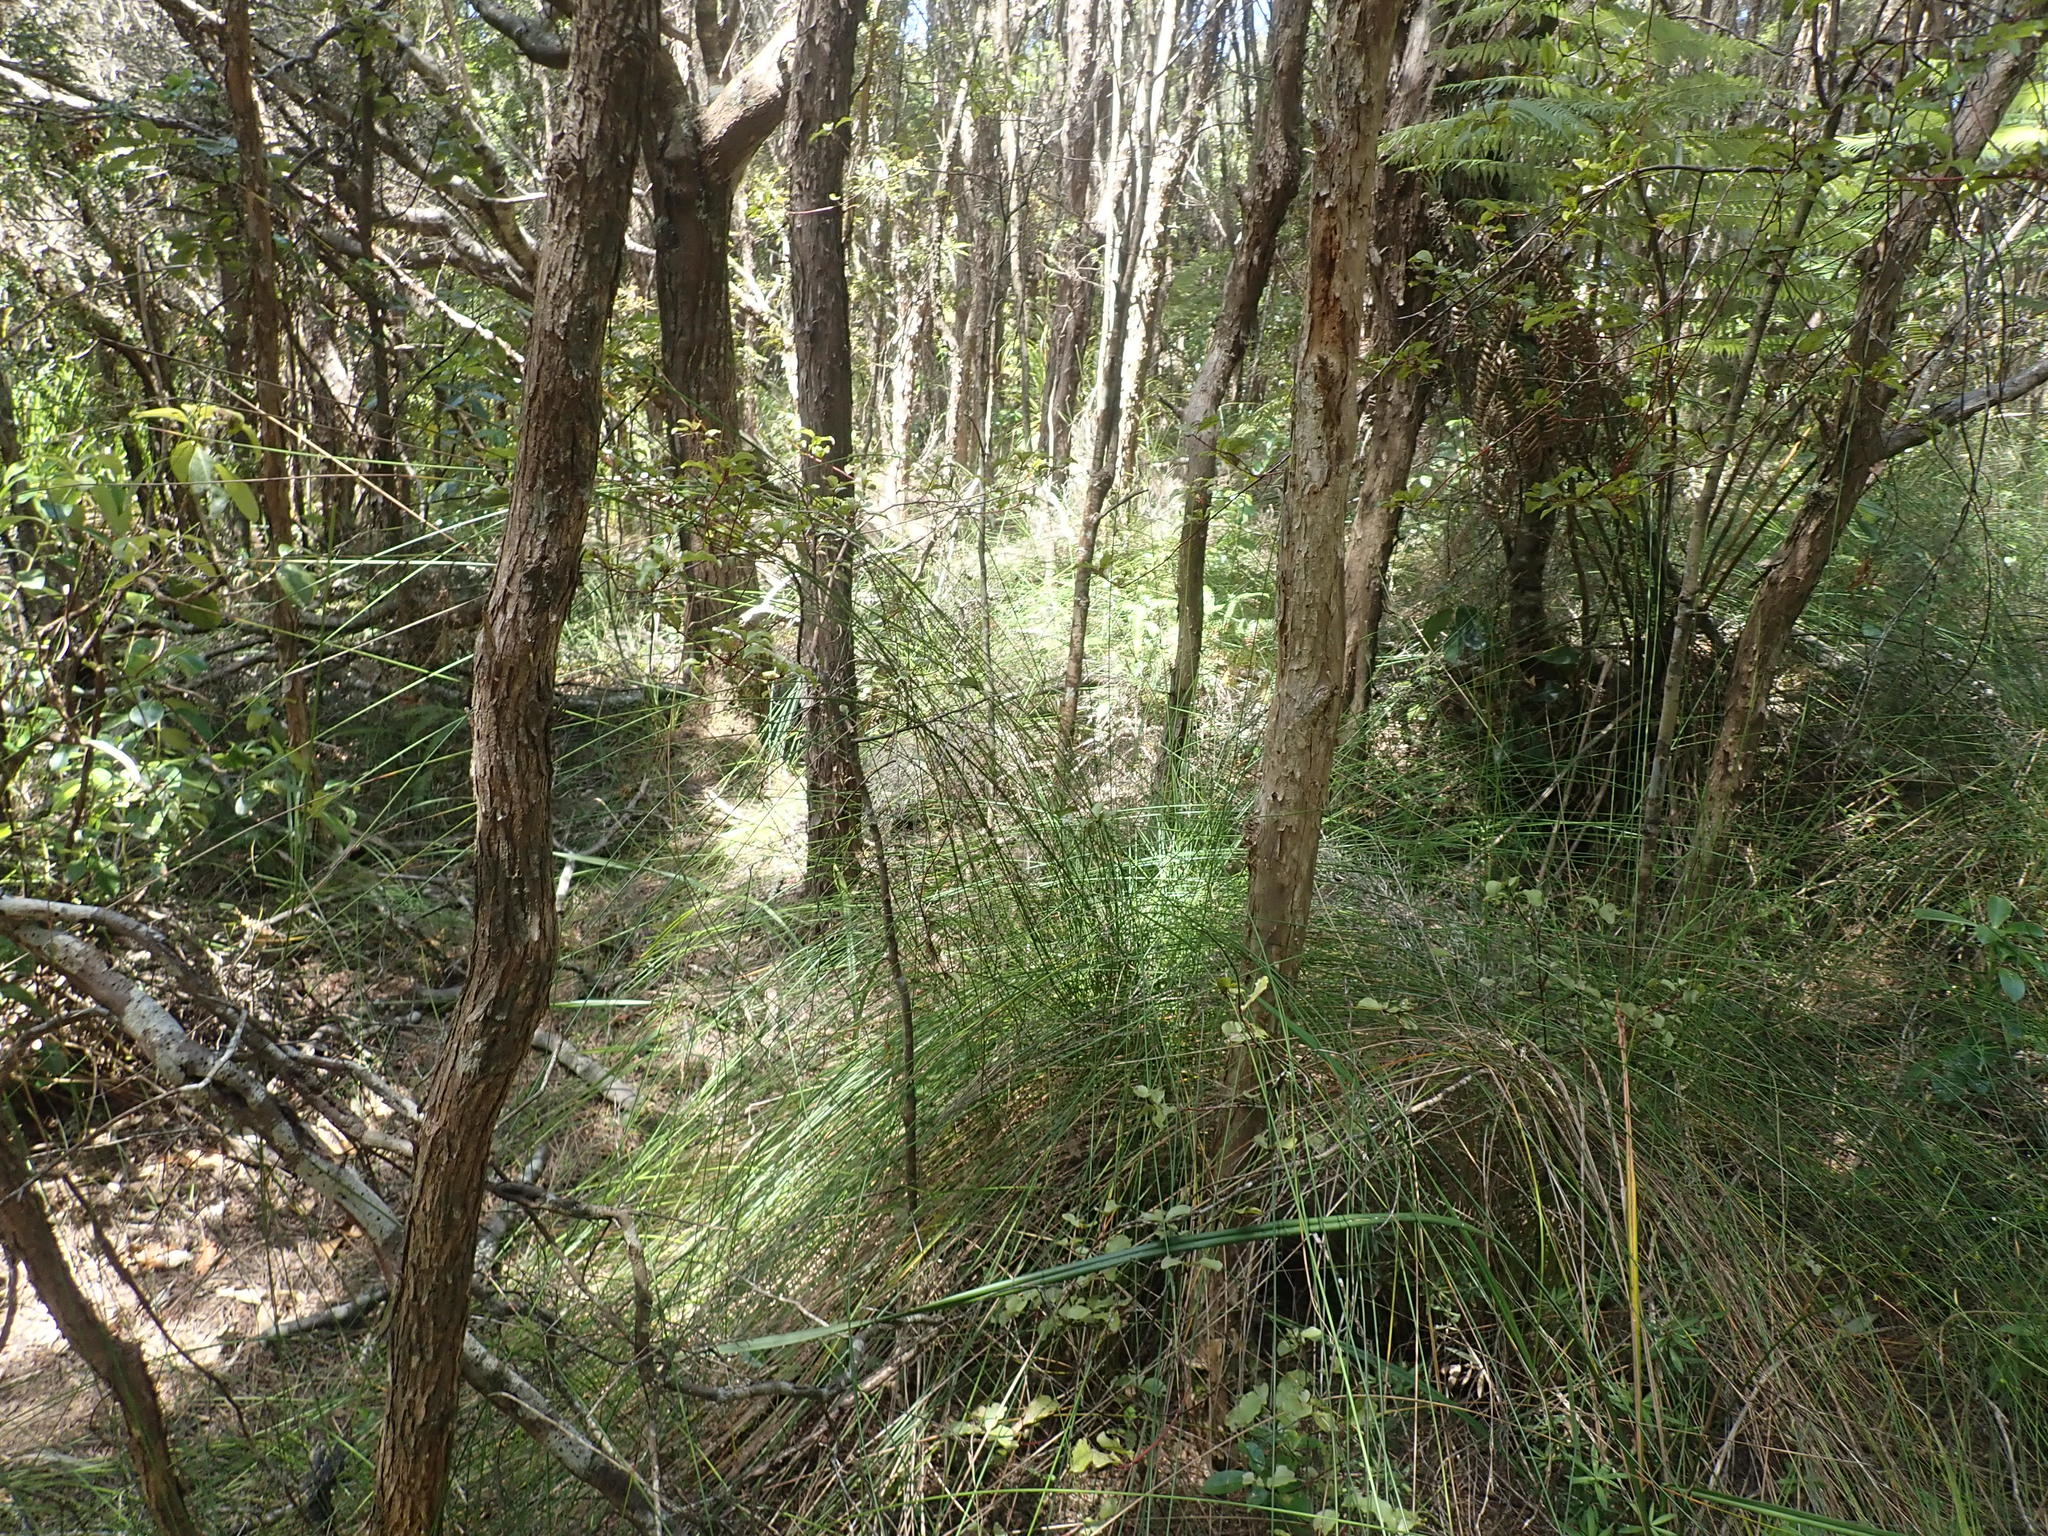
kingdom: Plantae
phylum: Tracheophyta
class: Magnoliopsida
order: Ericales
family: Primulaceae
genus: Myrsine
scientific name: Myrsine australis
